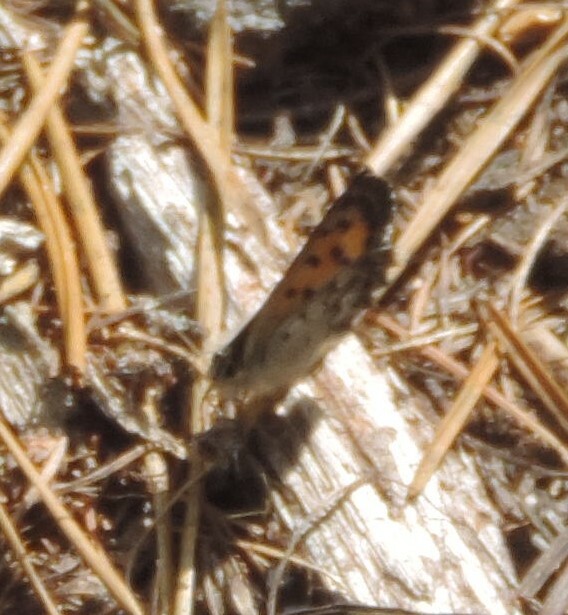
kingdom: Animalia
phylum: Arthropoda
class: Insecta
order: Lepidoptera
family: Lycaenidae
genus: Tharsalea
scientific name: Tharsalea mariposa
